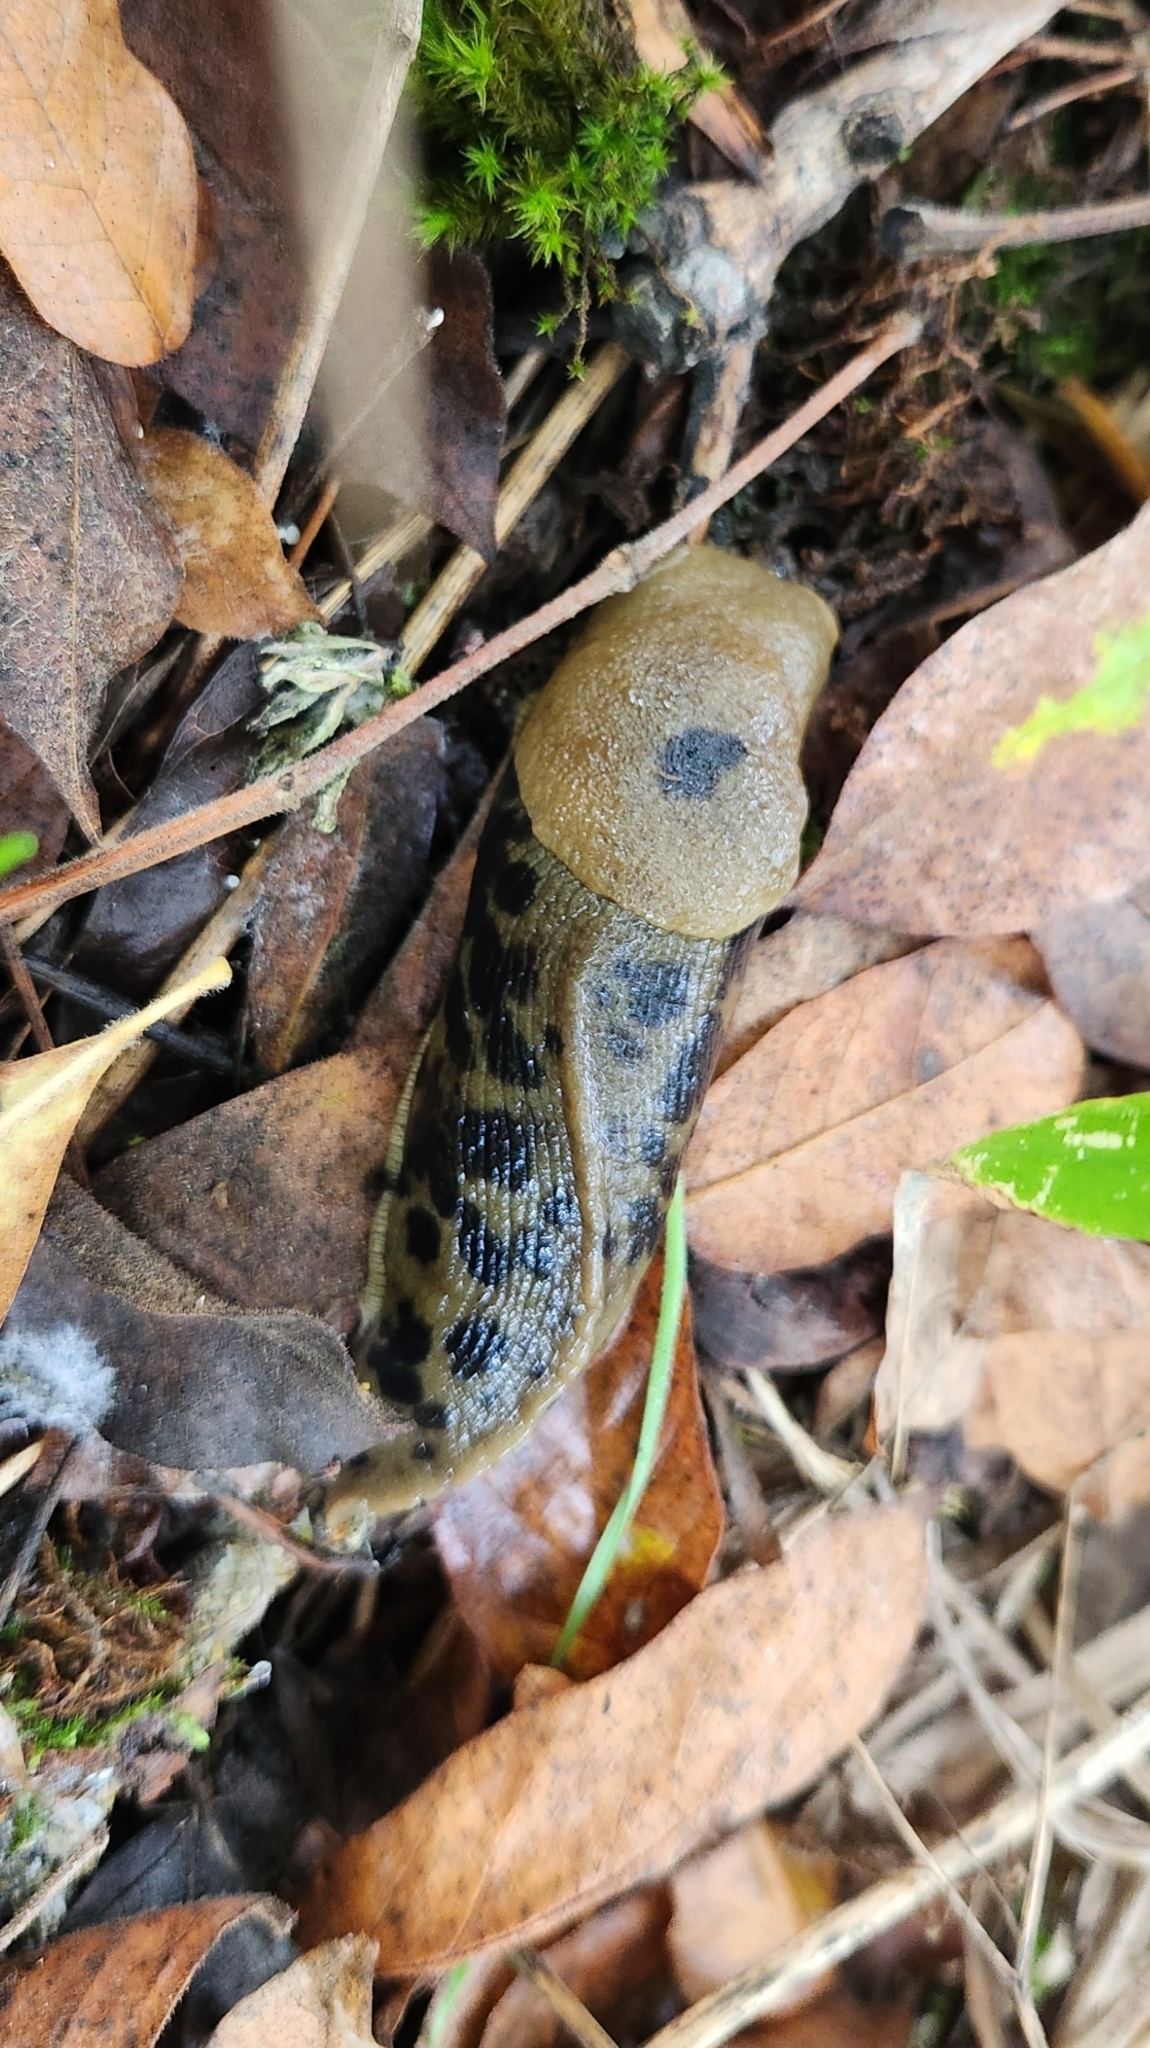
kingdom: Animalia
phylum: Mollusca
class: Gastropoda
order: Stylommatophora
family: Ariolimacidae
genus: Ariolimax
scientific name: Ariolimax columbianus
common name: Pacific banana slug
